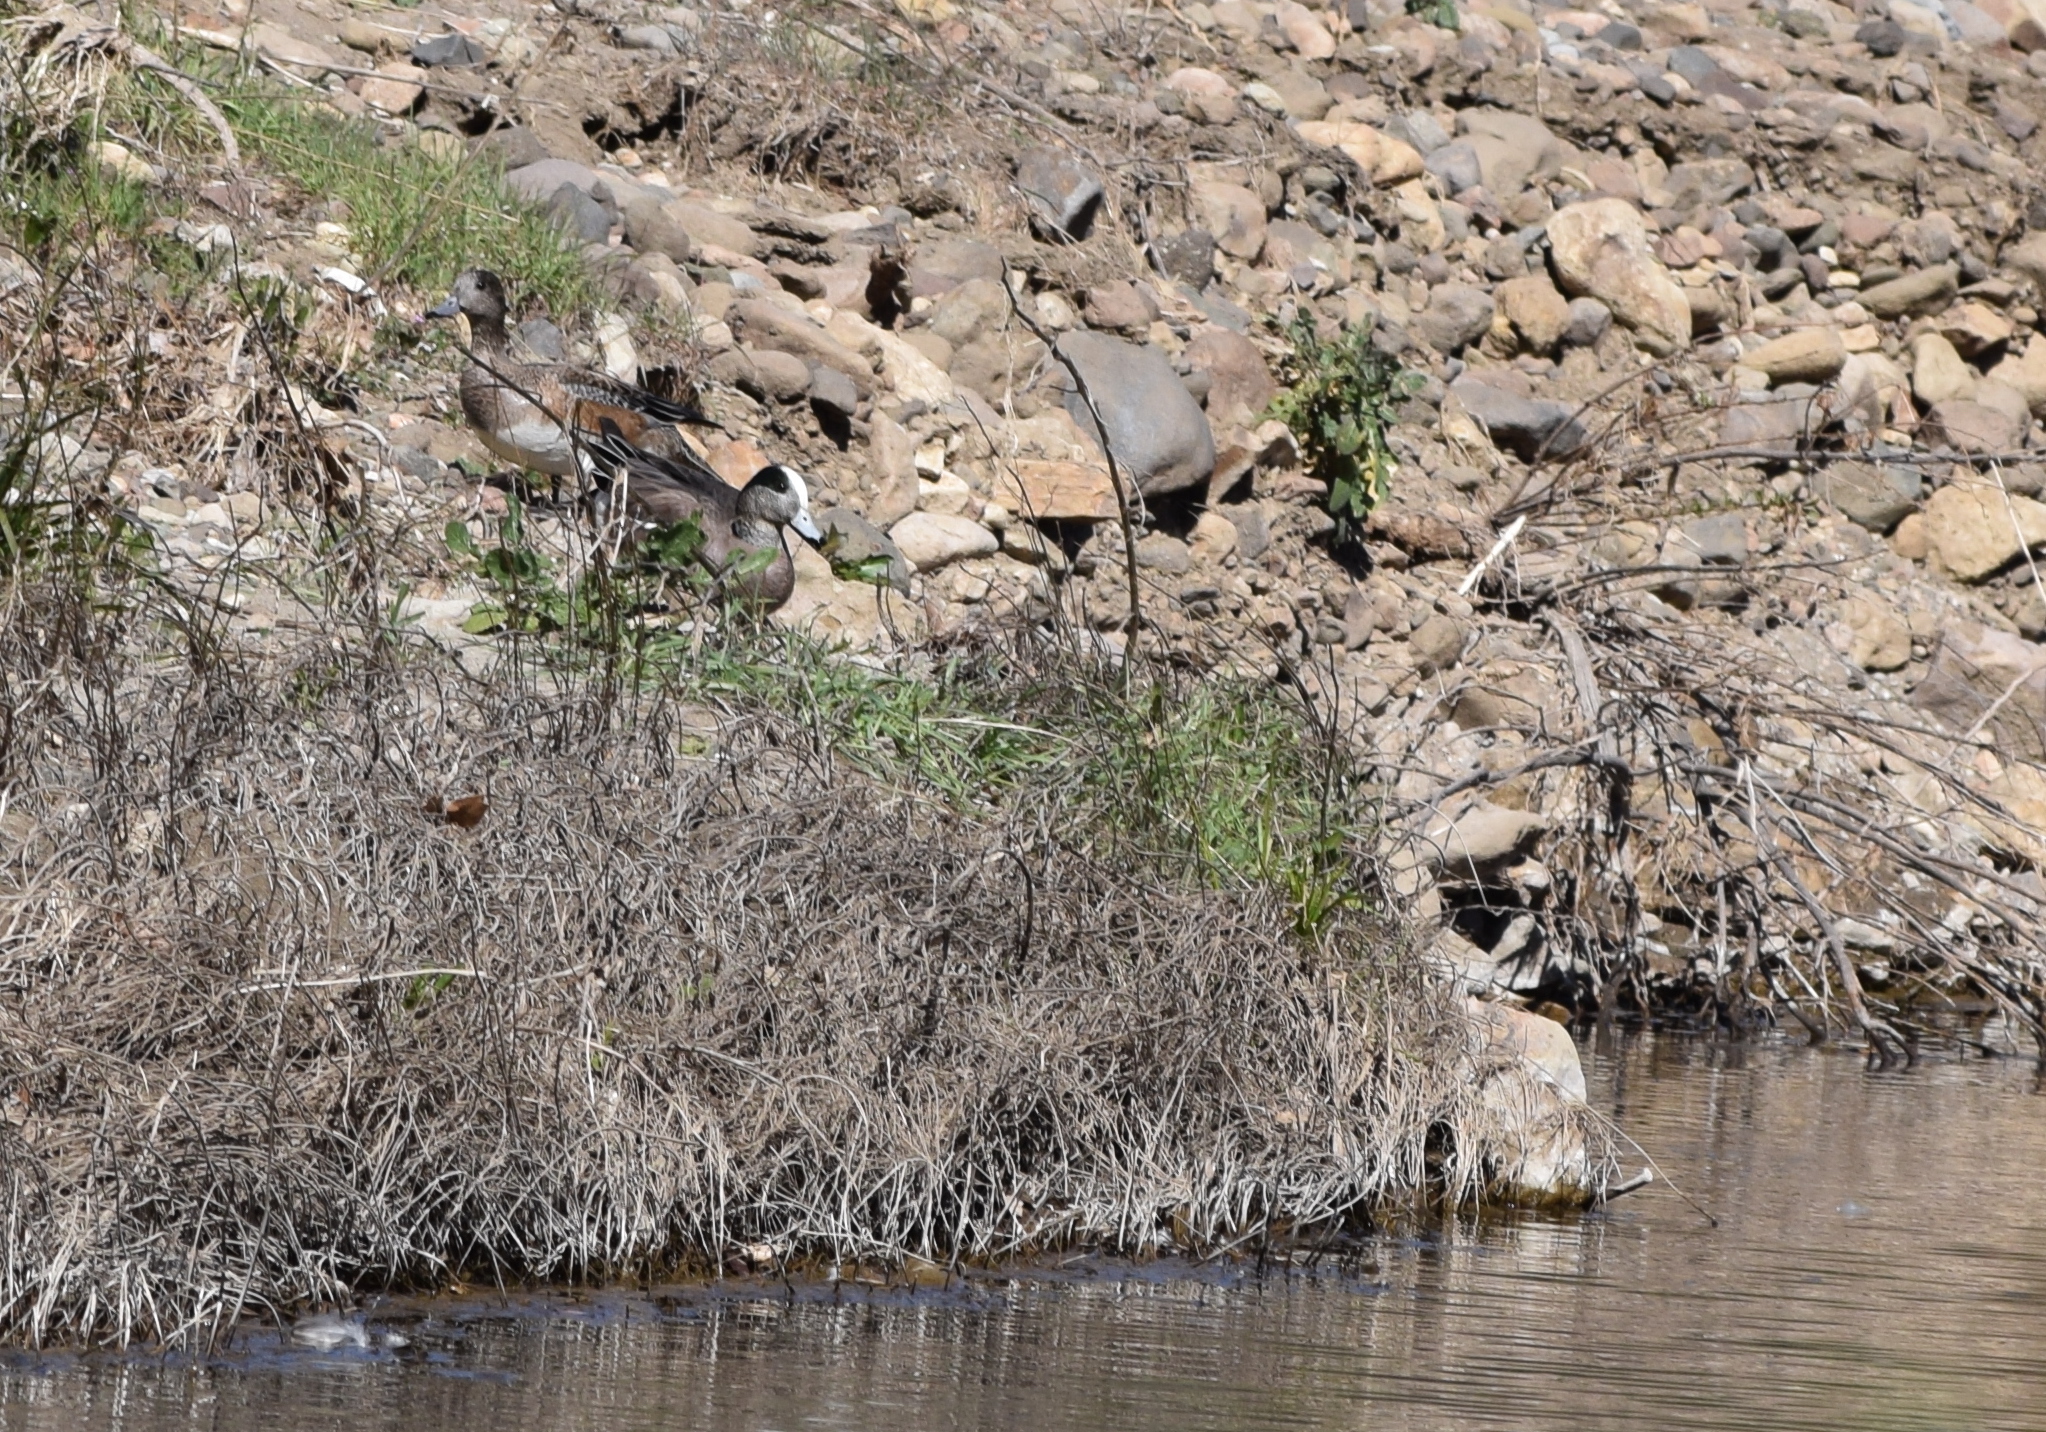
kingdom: Animalia
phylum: Chordata
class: Aves
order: Anseriformes
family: Anatidae
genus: Mareca
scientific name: Mareca americana
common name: American wigeon
